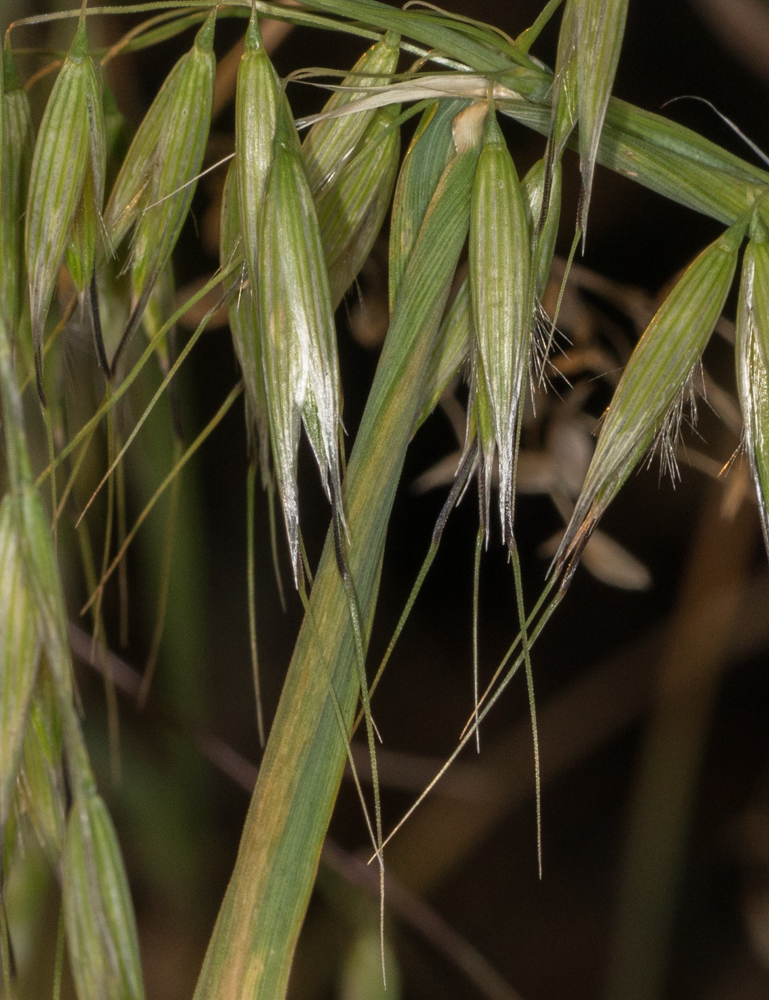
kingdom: Plantae
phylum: Tracheophyta
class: Liliopsida
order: Poales
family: Poaceae
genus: Avena
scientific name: Avena fatua
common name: Wild oat
